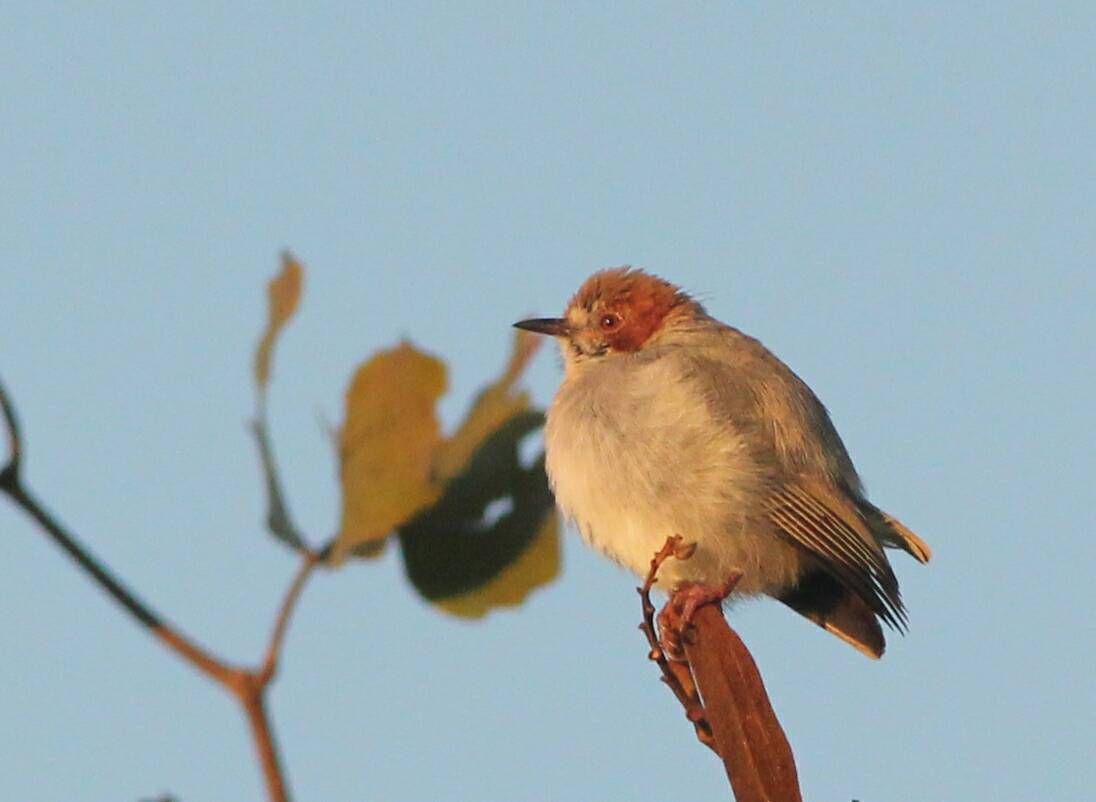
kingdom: Animalia
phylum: Chordata
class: Aves
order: Passeriformes
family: Macrosphenidae
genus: Sylvietta
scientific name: Sylvietta ruficapilla
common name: Red-capped crombec
